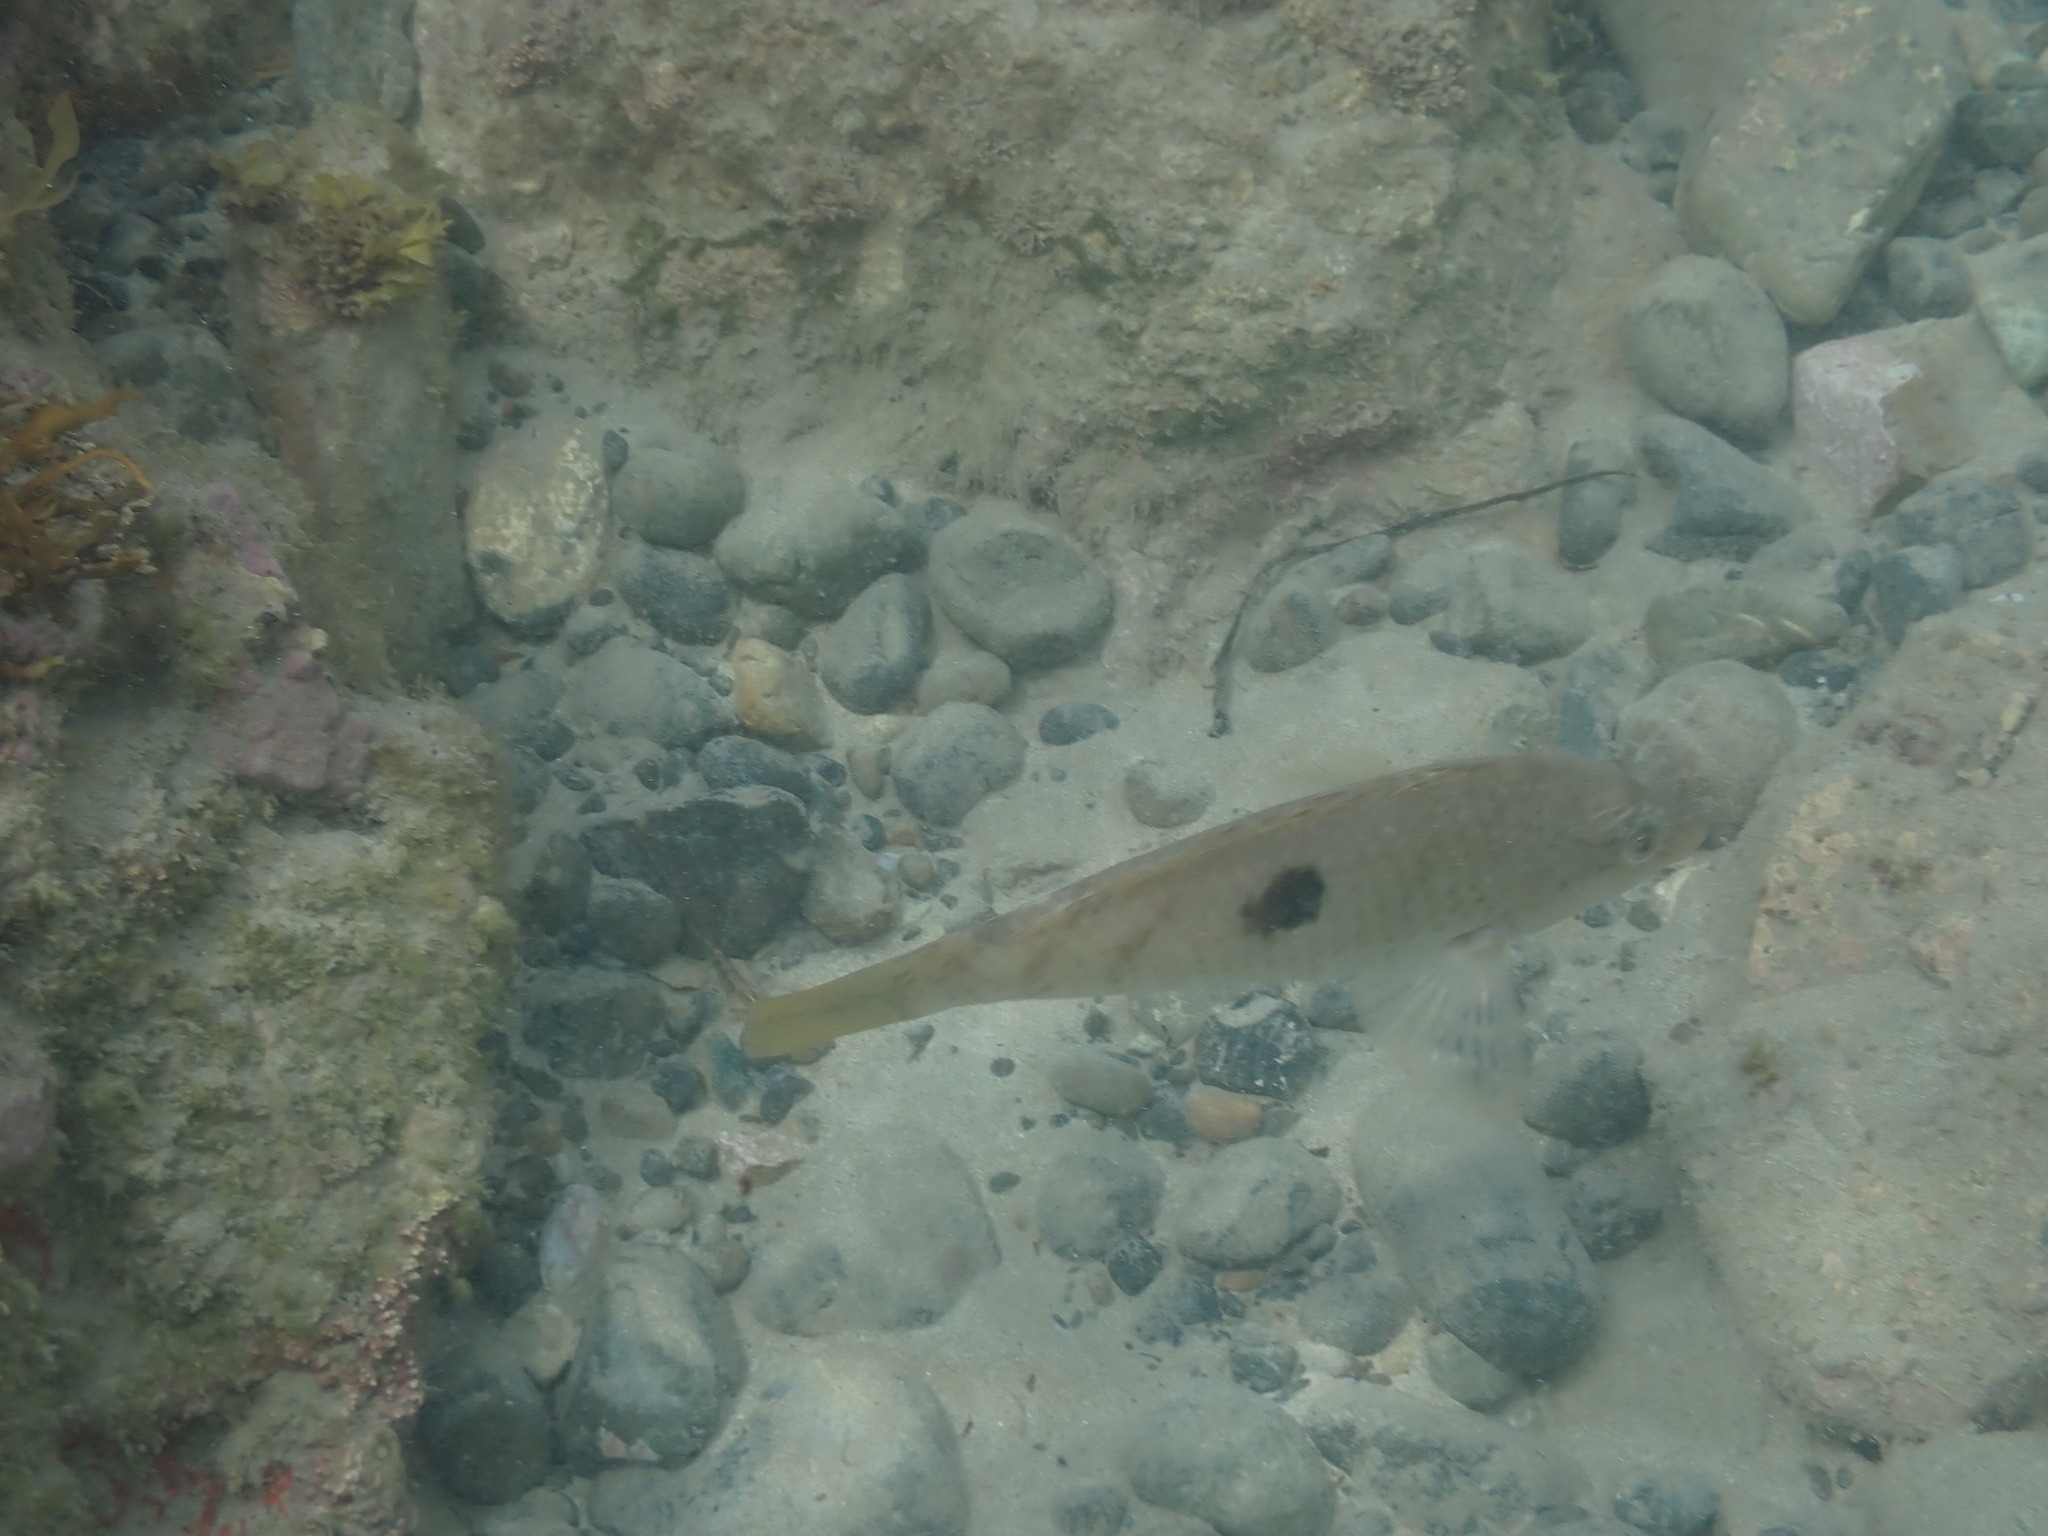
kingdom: Animalia
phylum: Chordata
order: Perciformes
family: Labridae
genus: Notolabrus
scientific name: Notolabrus celidotus
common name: Spotty
